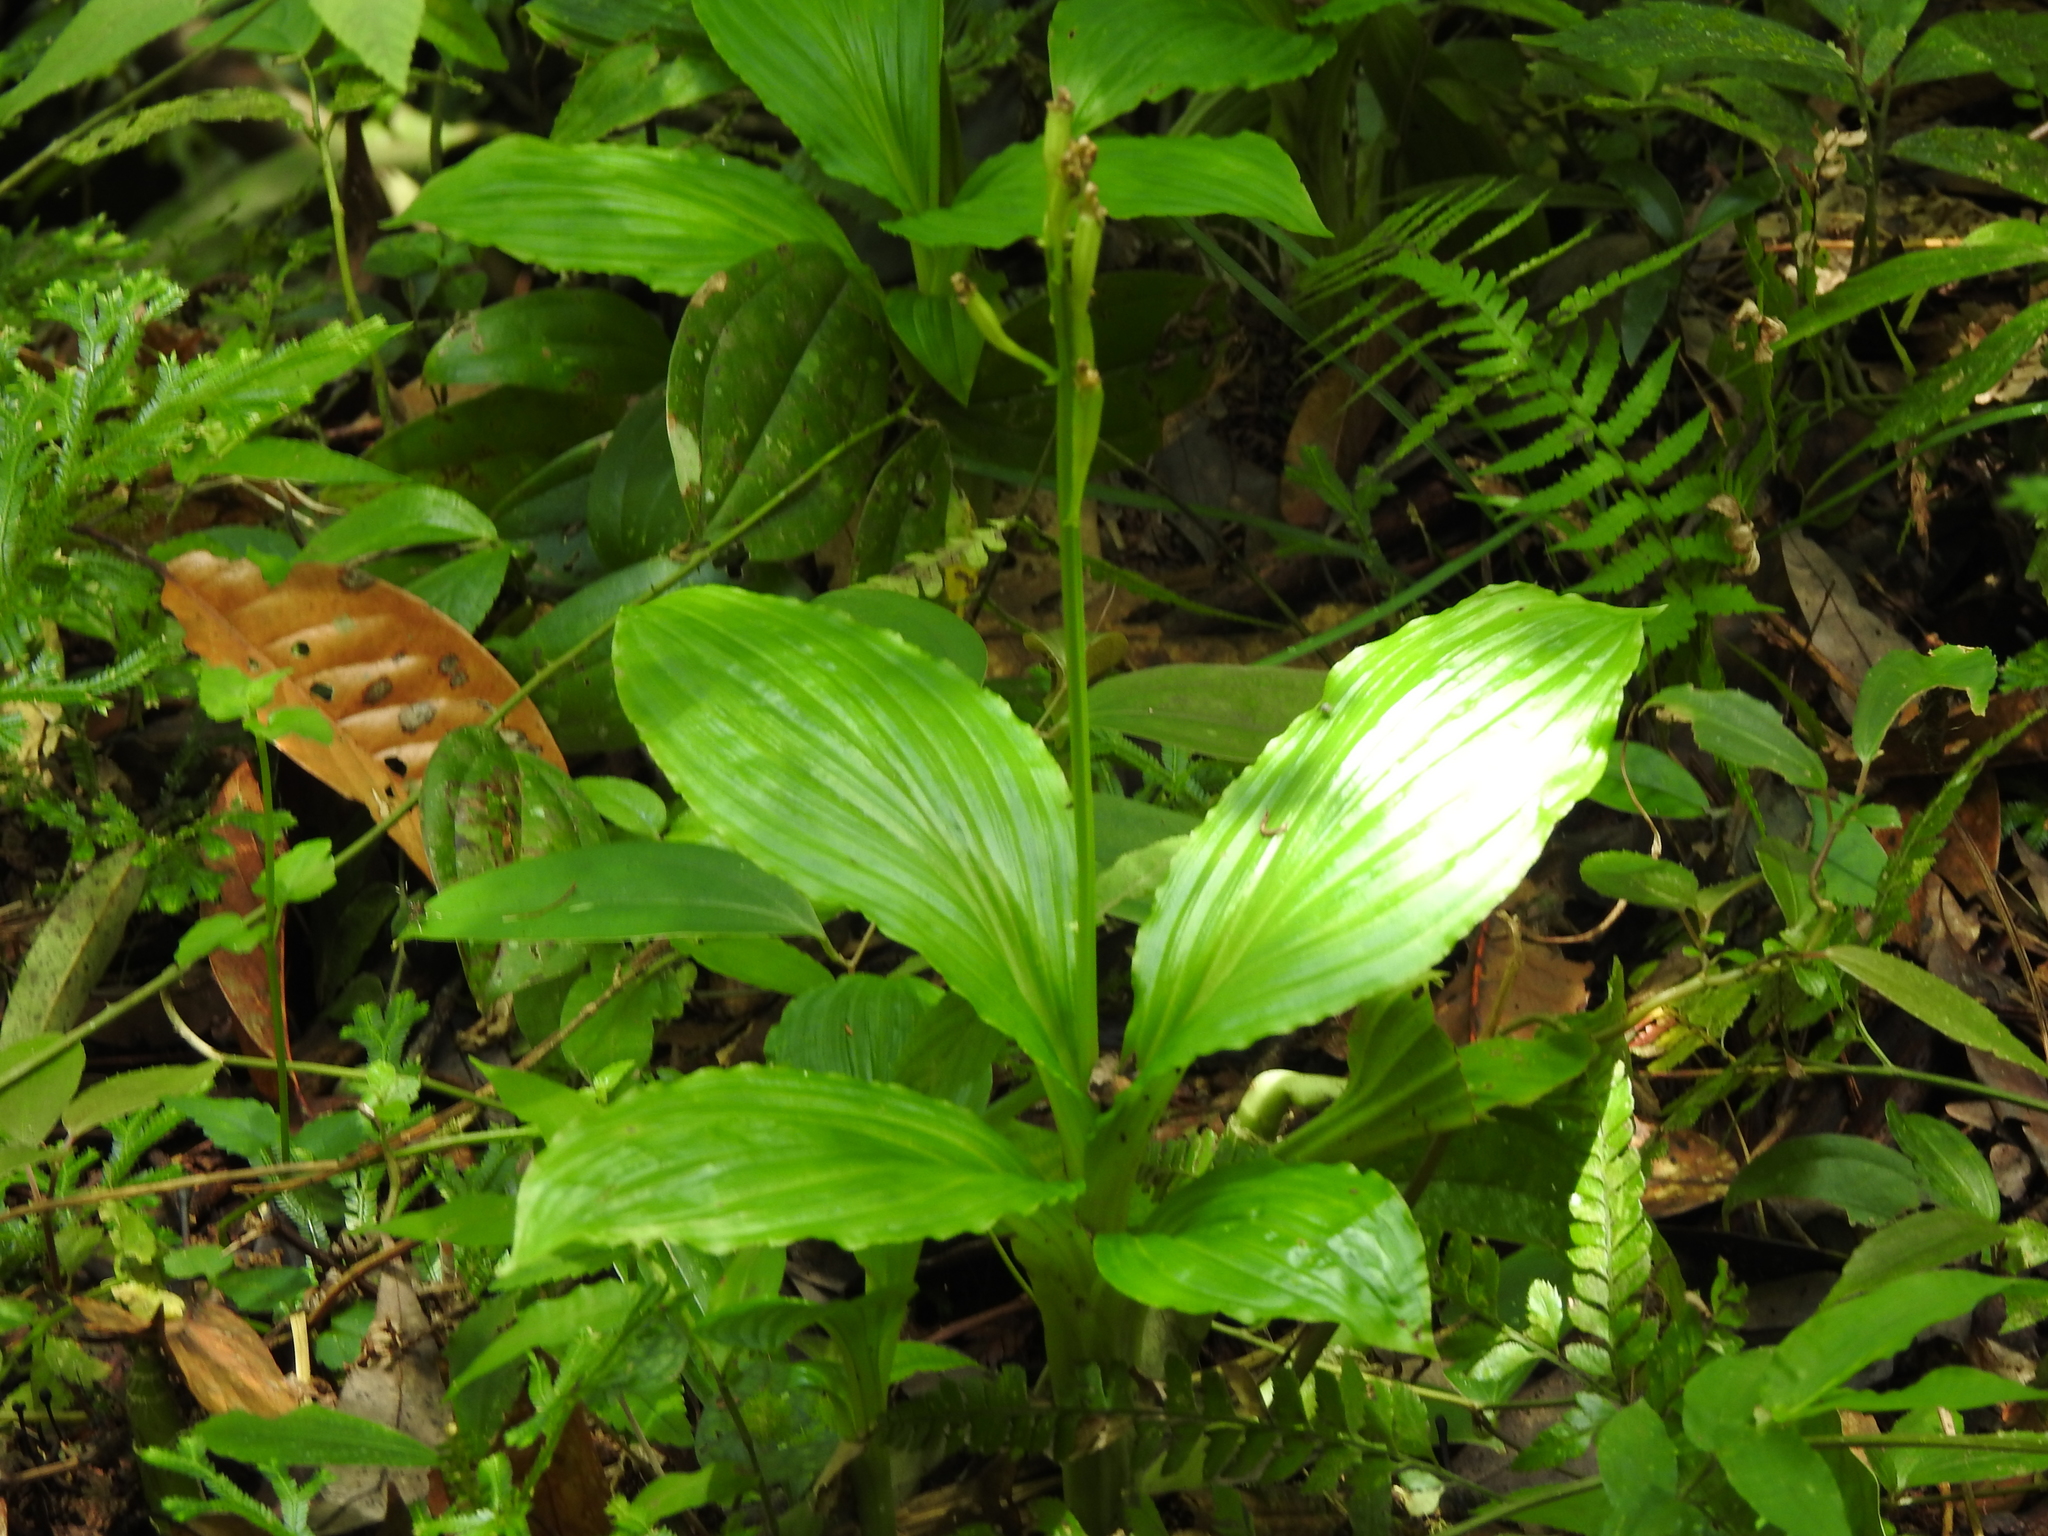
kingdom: Plantae
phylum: Tracheophyta
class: Liliopsida
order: Asparagales
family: Orchidaceae
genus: Liparis
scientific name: Liparis sootenzanensis
